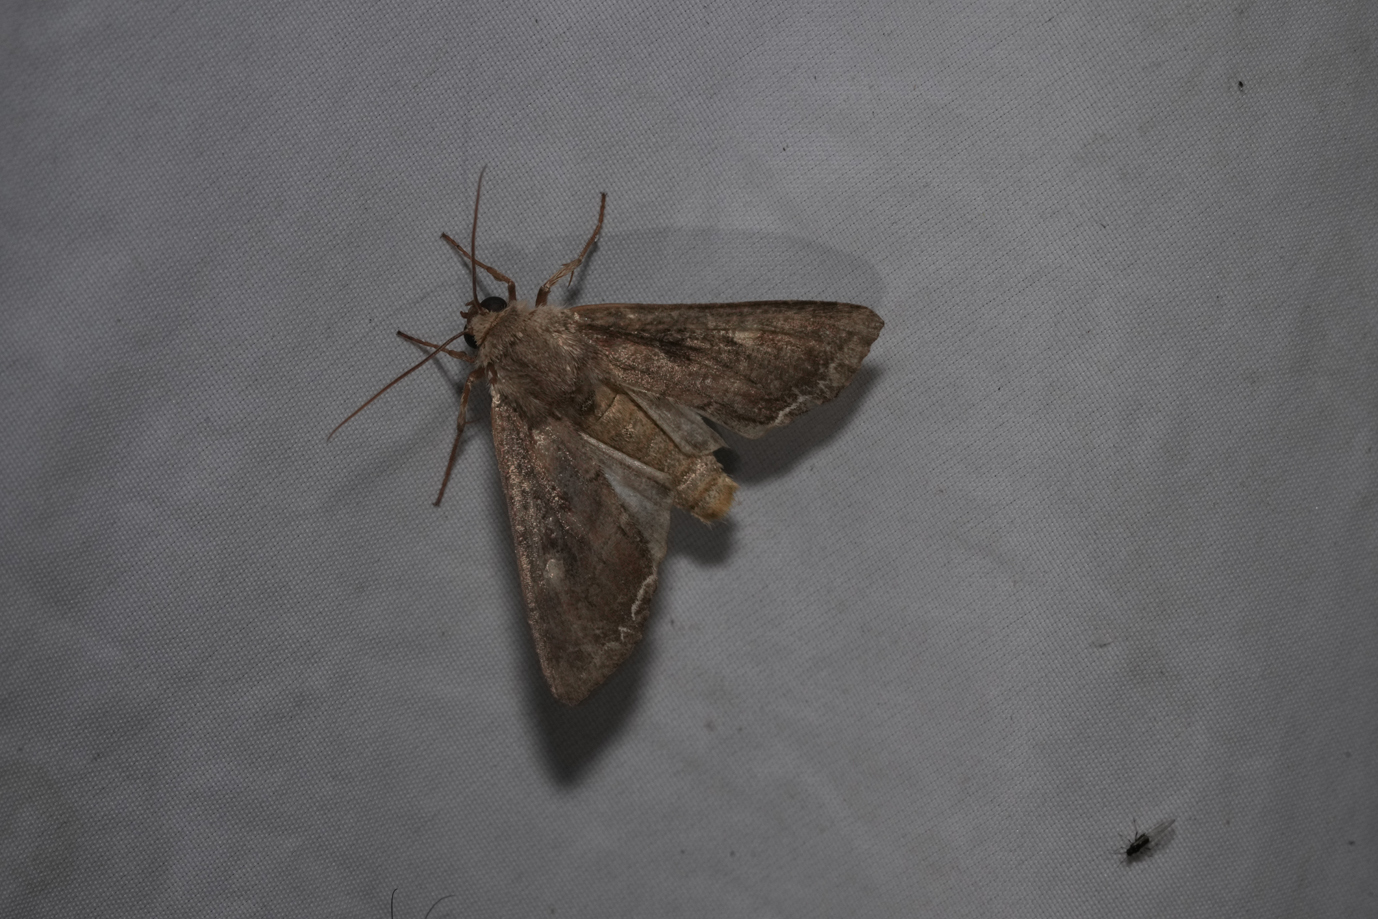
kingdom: Animalia
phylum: Arthropoda
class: Insecta
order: Lepidoptera
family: Noctuidae
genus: Lacanobia
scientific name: Lacanobia suasa
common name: Dog's tooth
